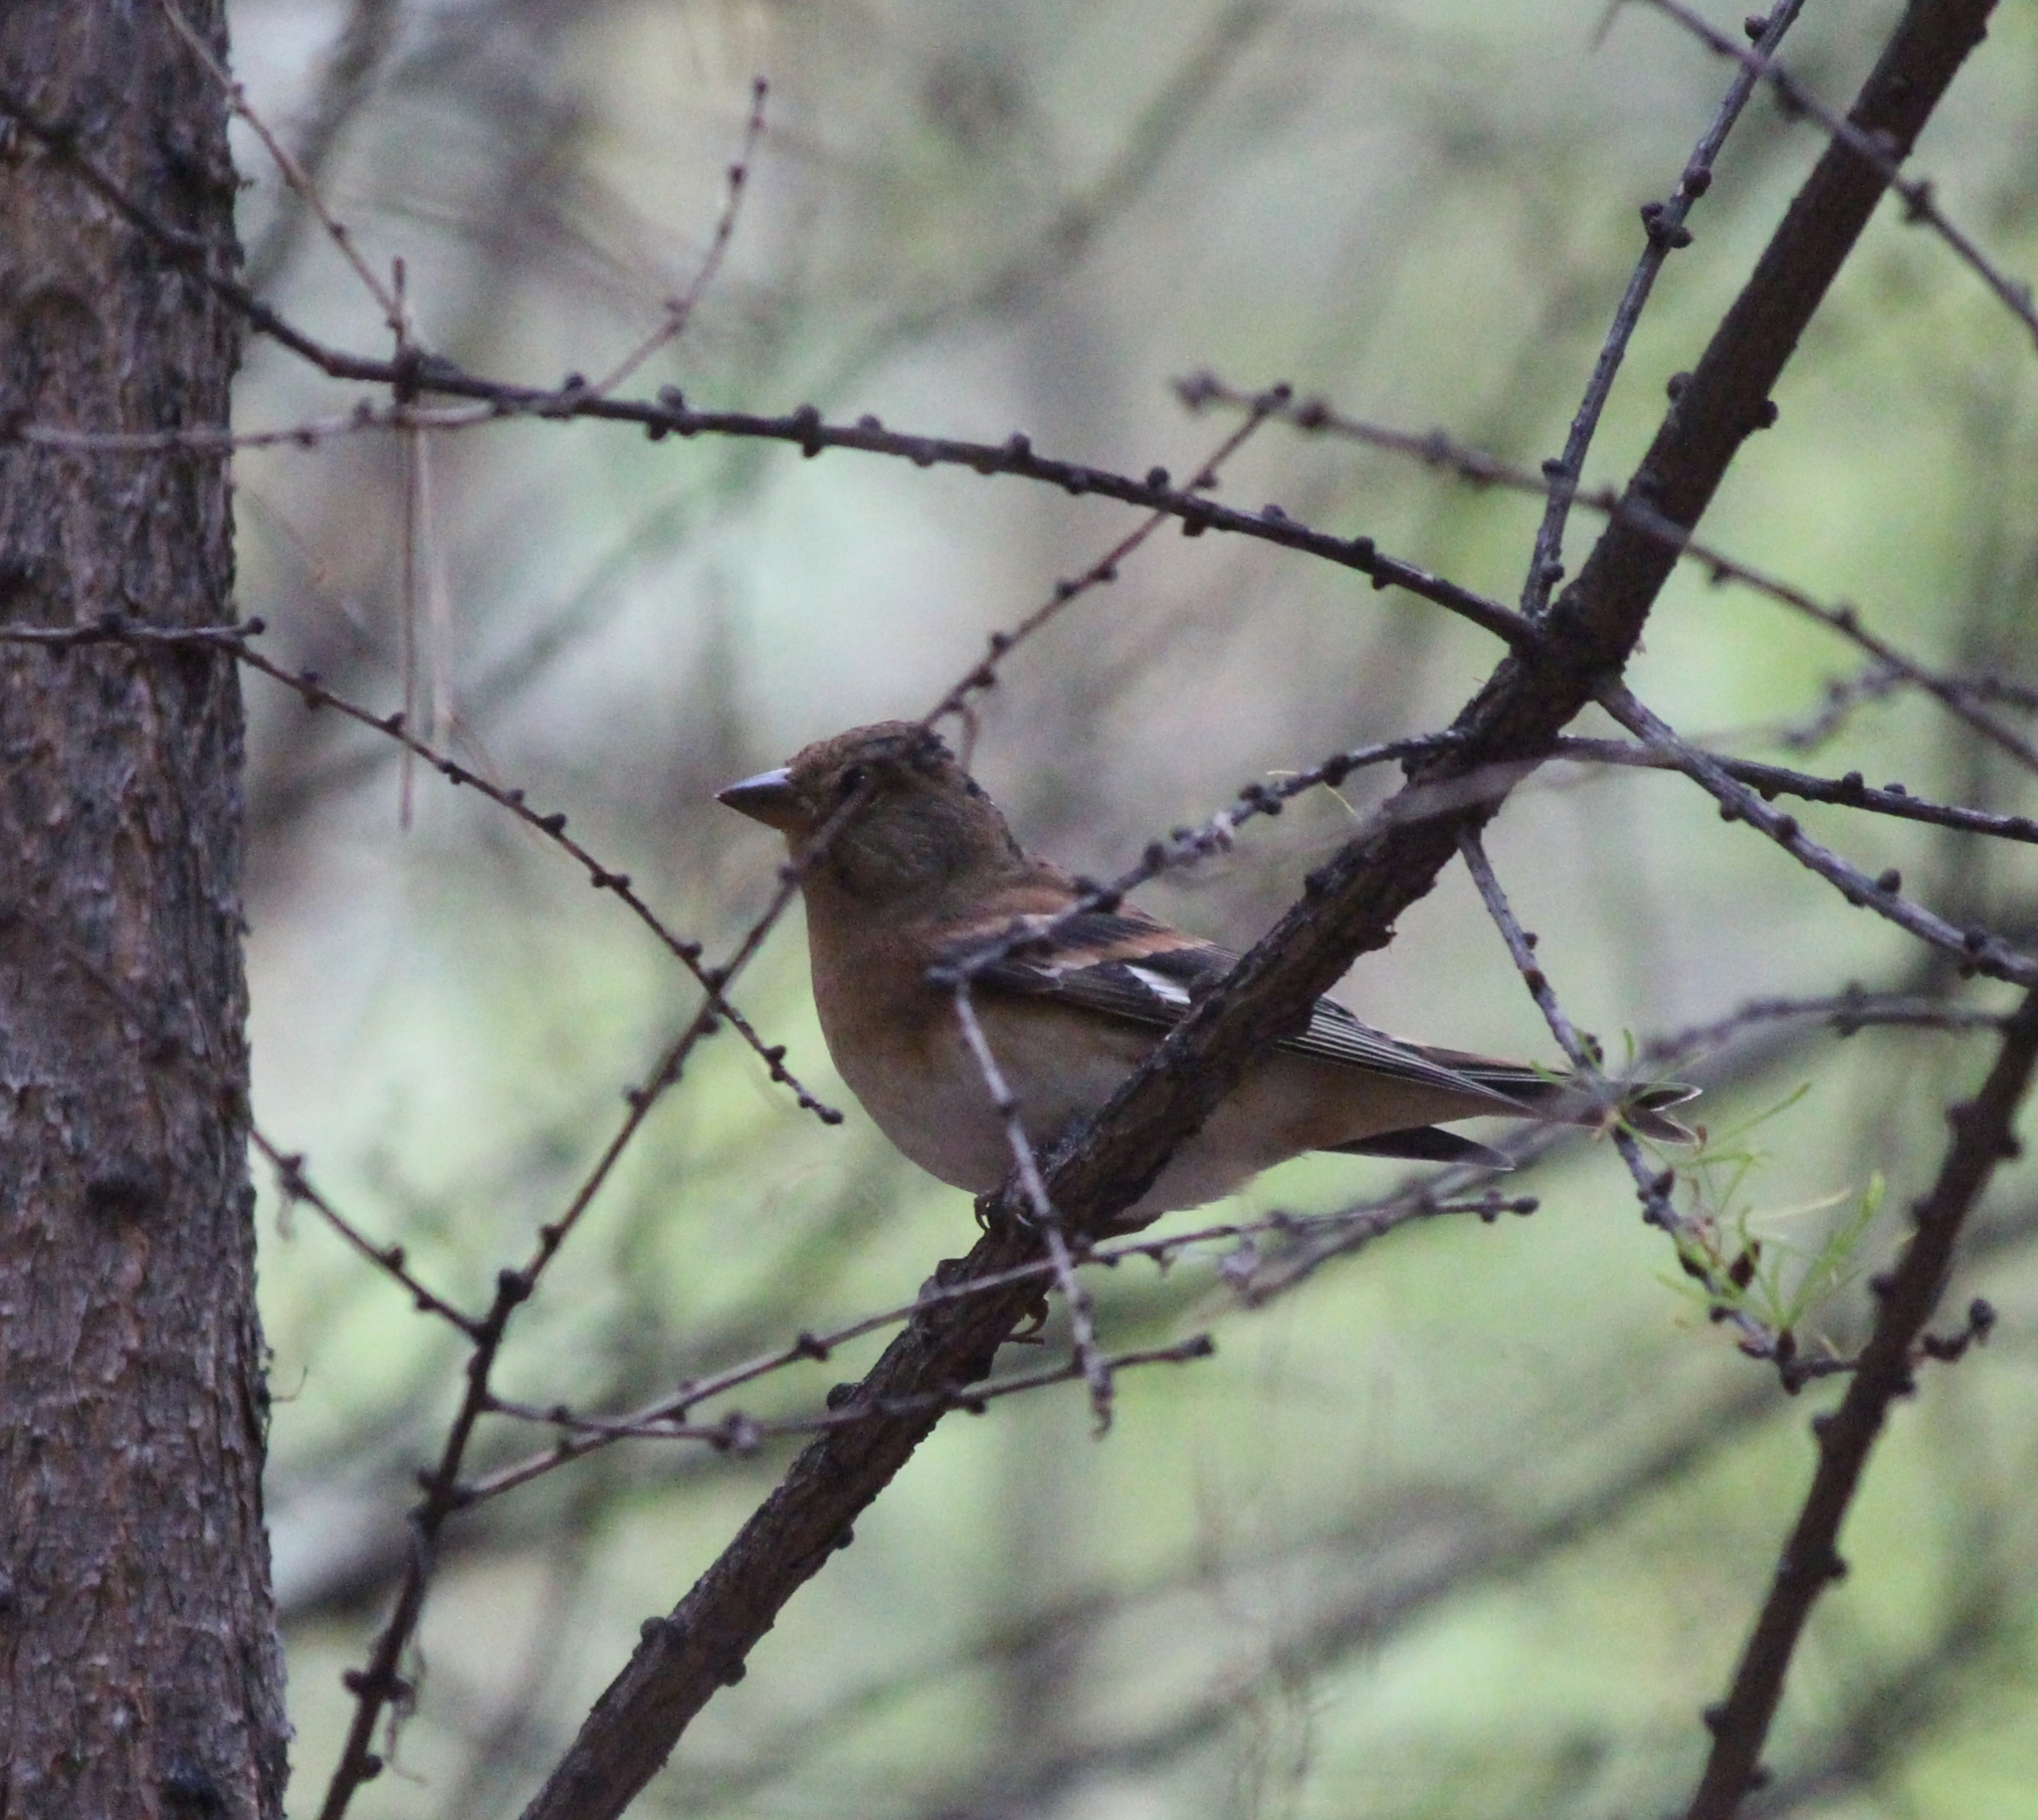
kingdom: Animalia
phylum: Chordata
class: Aves
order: Passeriformes
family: Fringillidae
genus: Fringilla
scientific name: Fringilla montifringilla
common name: Brambling
